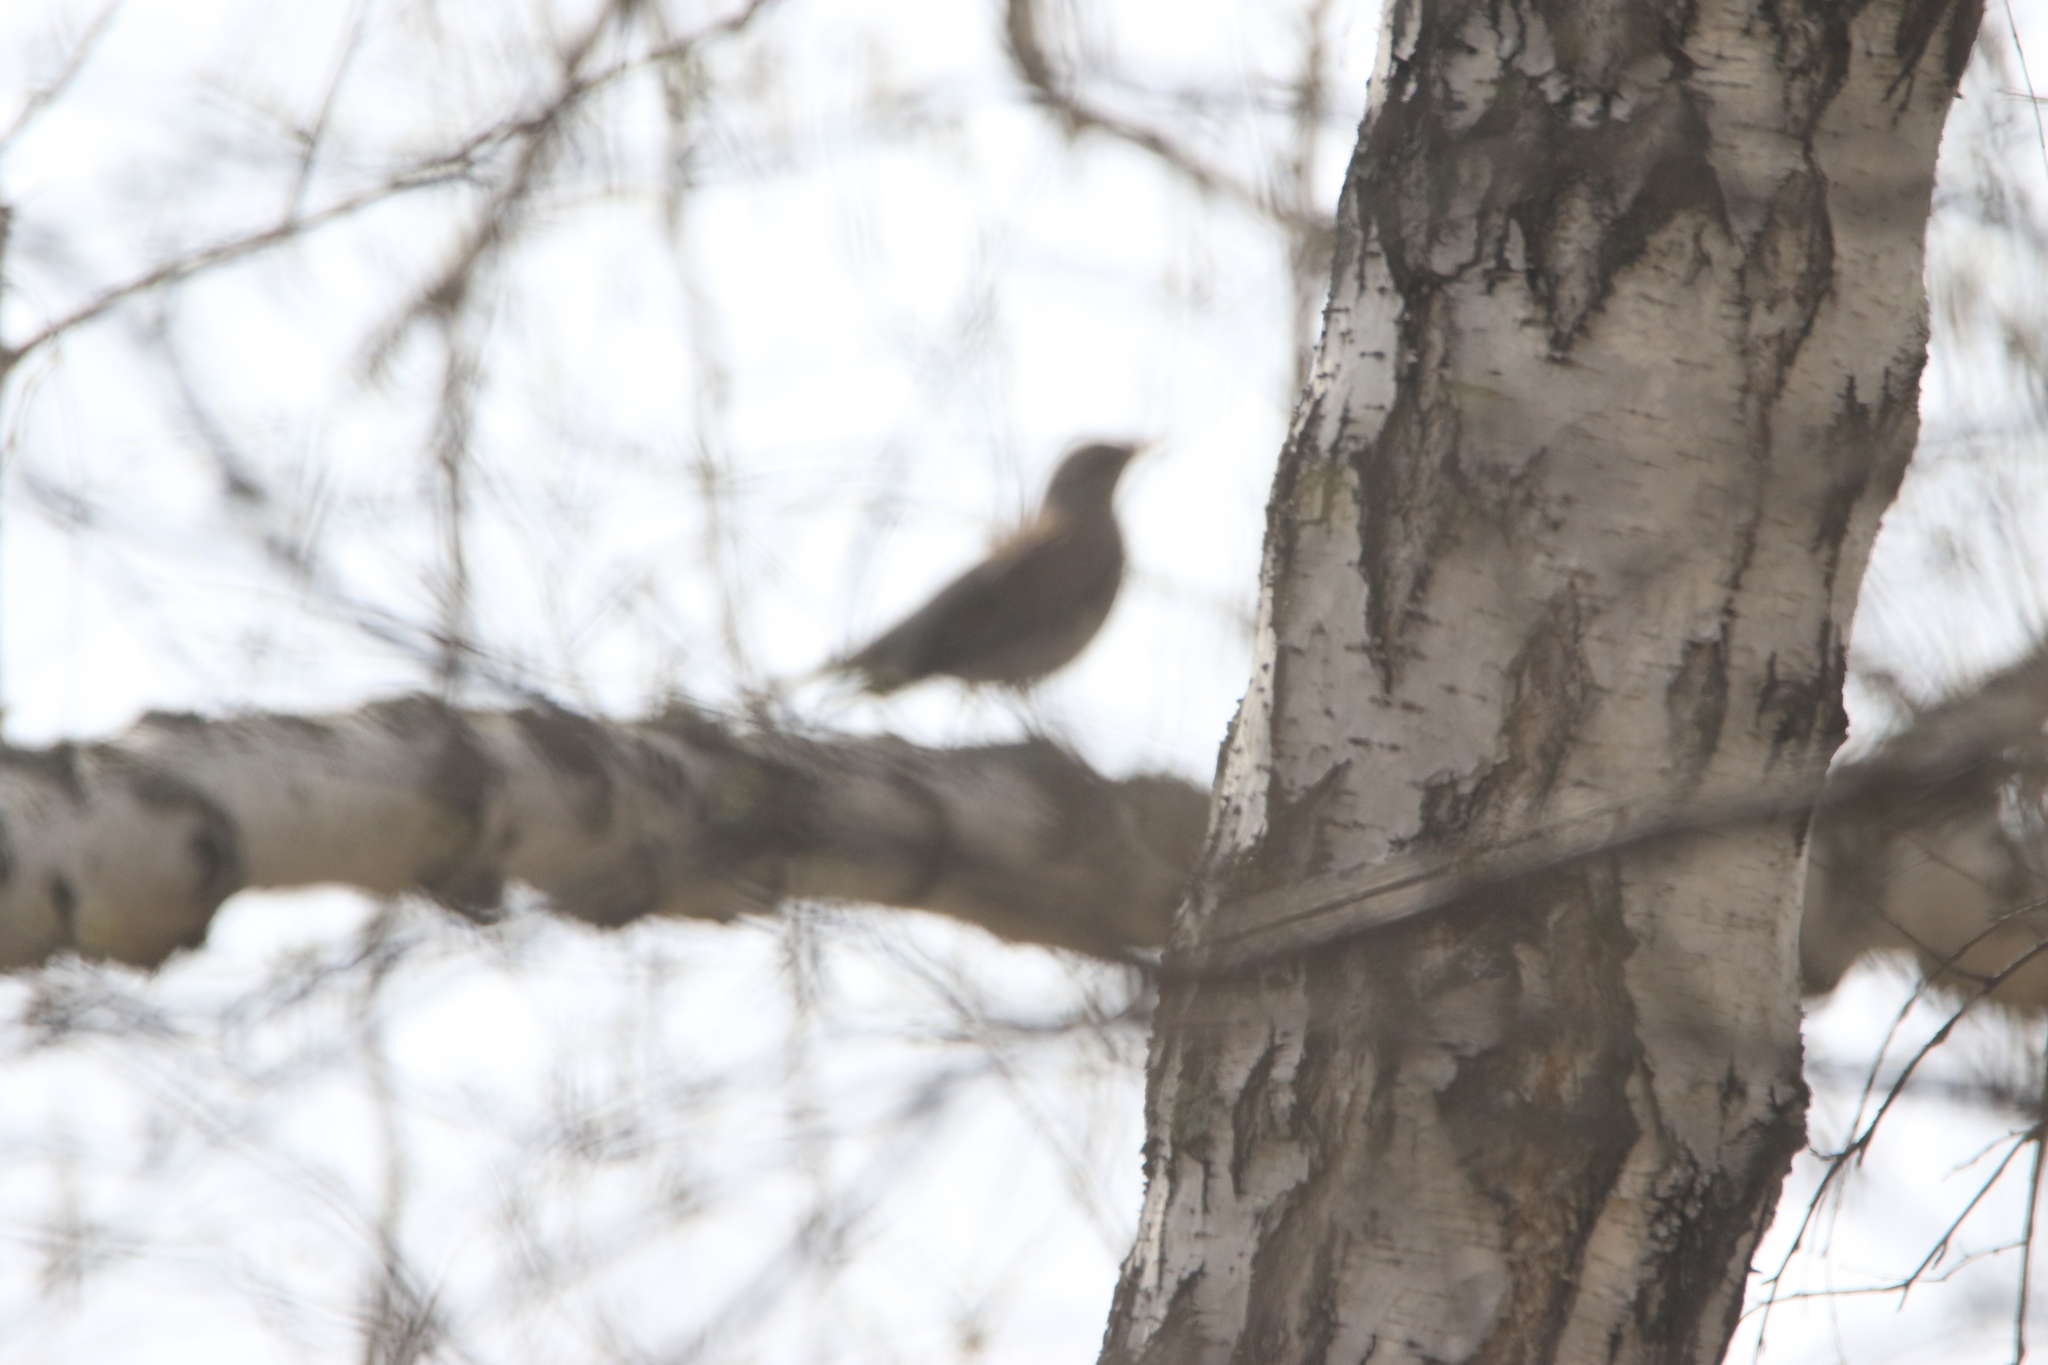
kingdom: Animalia
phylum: Chordata
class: Aves
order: Passeriformes
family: Turdidae
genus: Turdus
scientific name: Turdus pilaris
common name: Fieldfare
